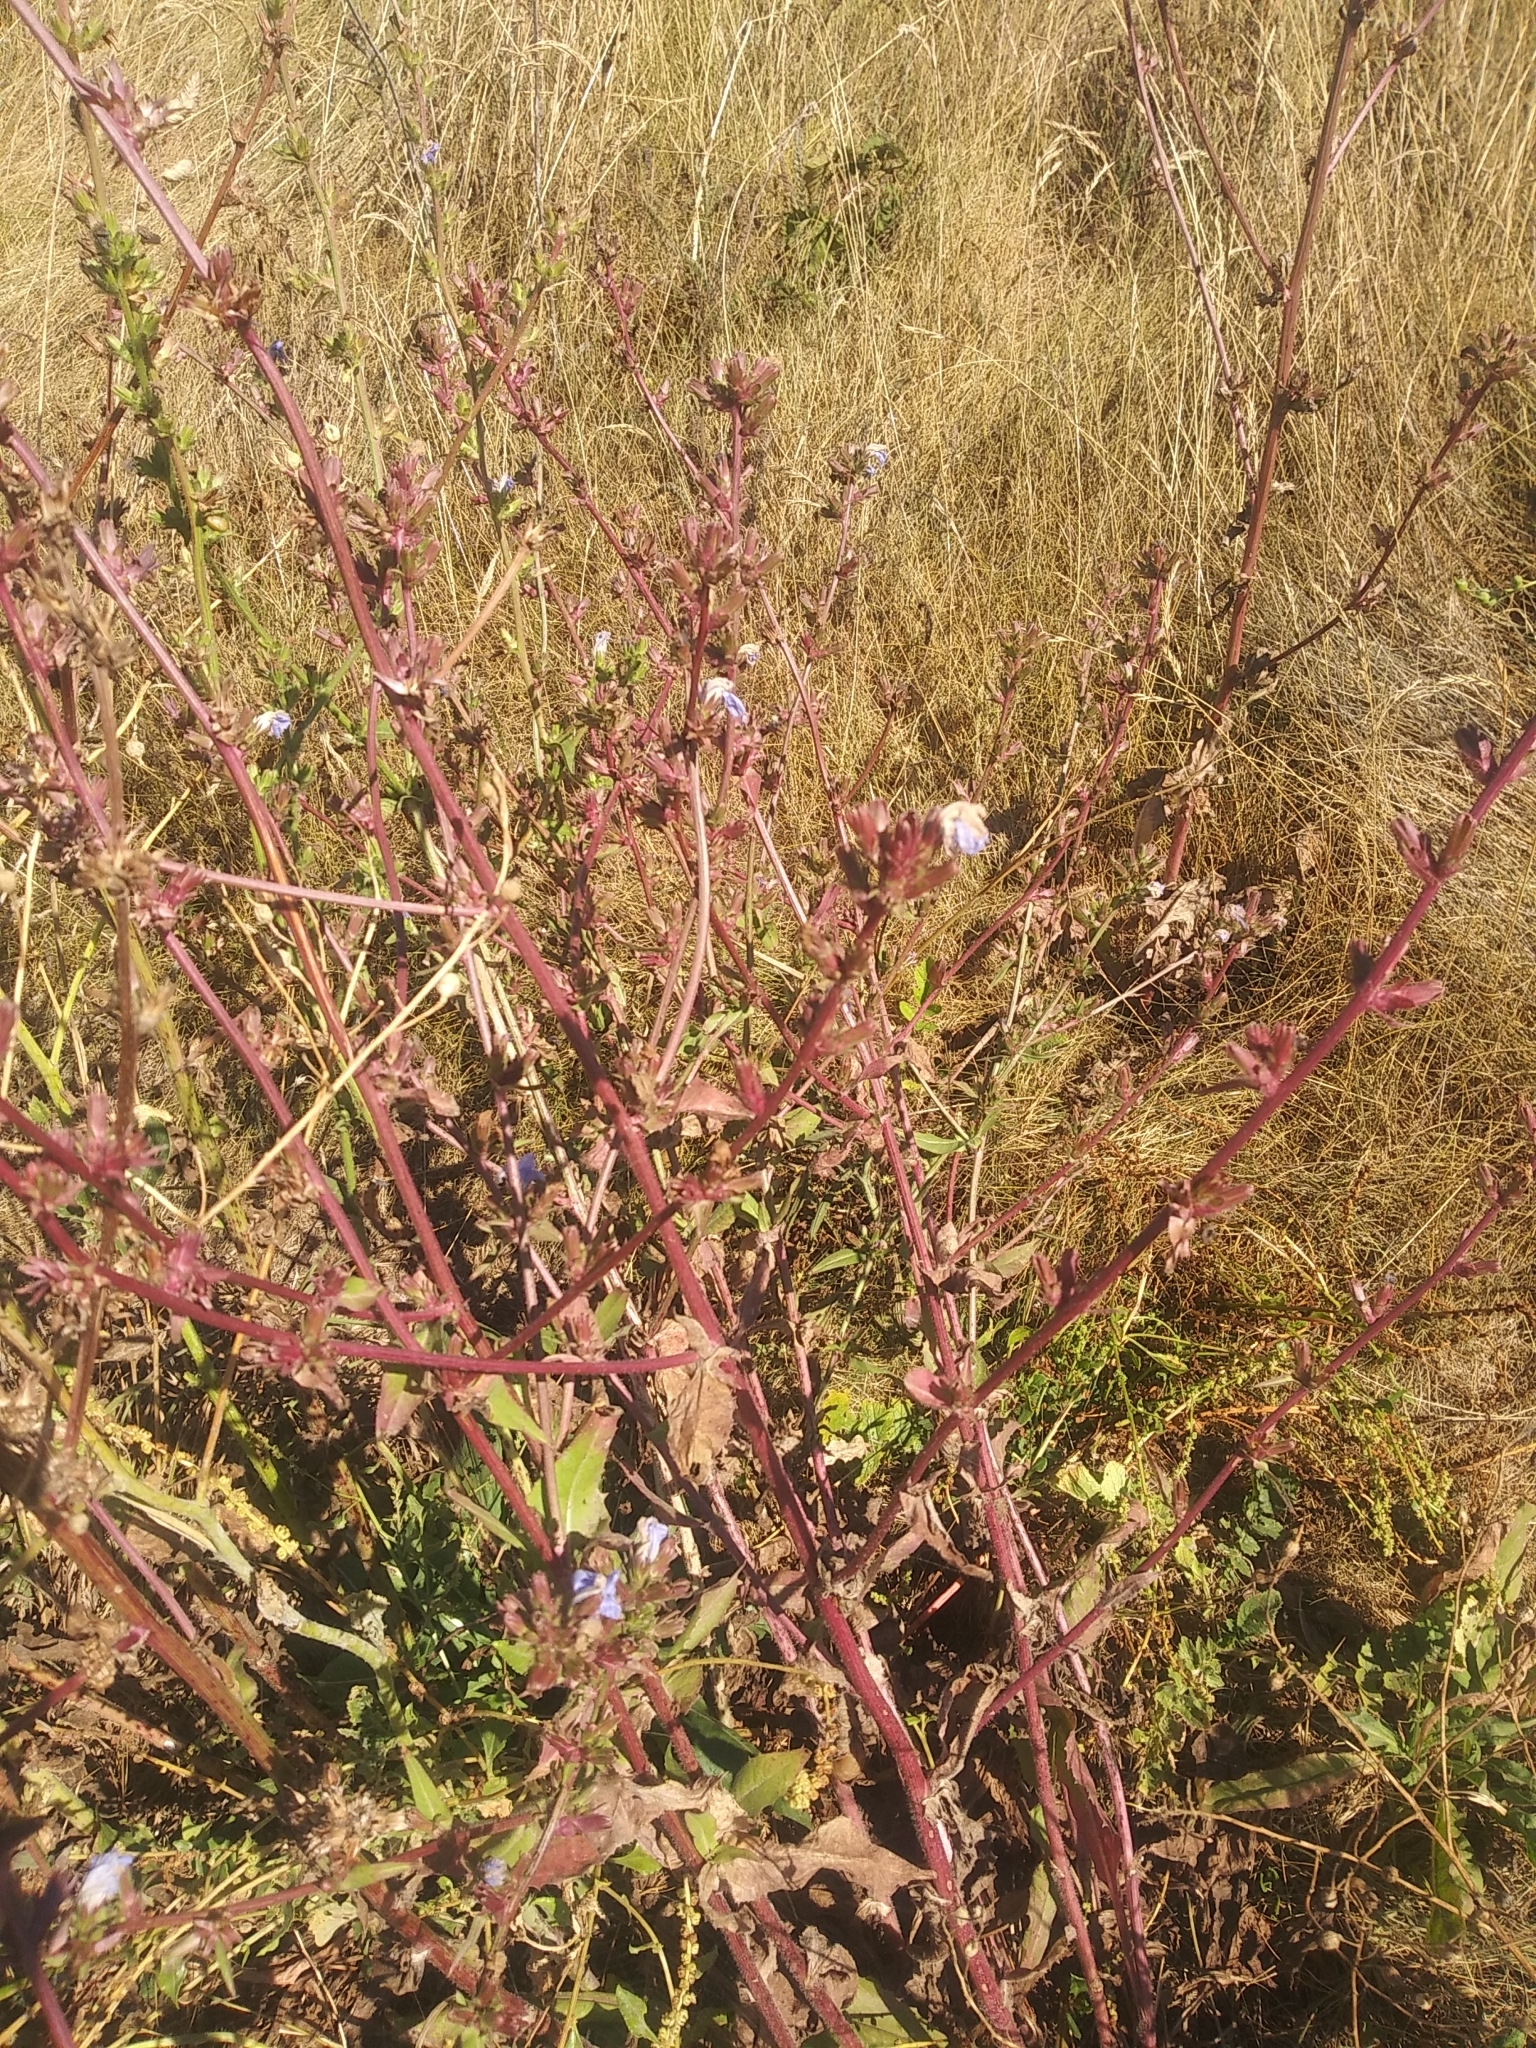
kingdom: Plantae
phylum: Tracheophyta
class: Magnoliopsida
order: Asterales
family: Asteraceae
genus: Cichorium
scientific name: Cichorium intybus
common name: Chicory
